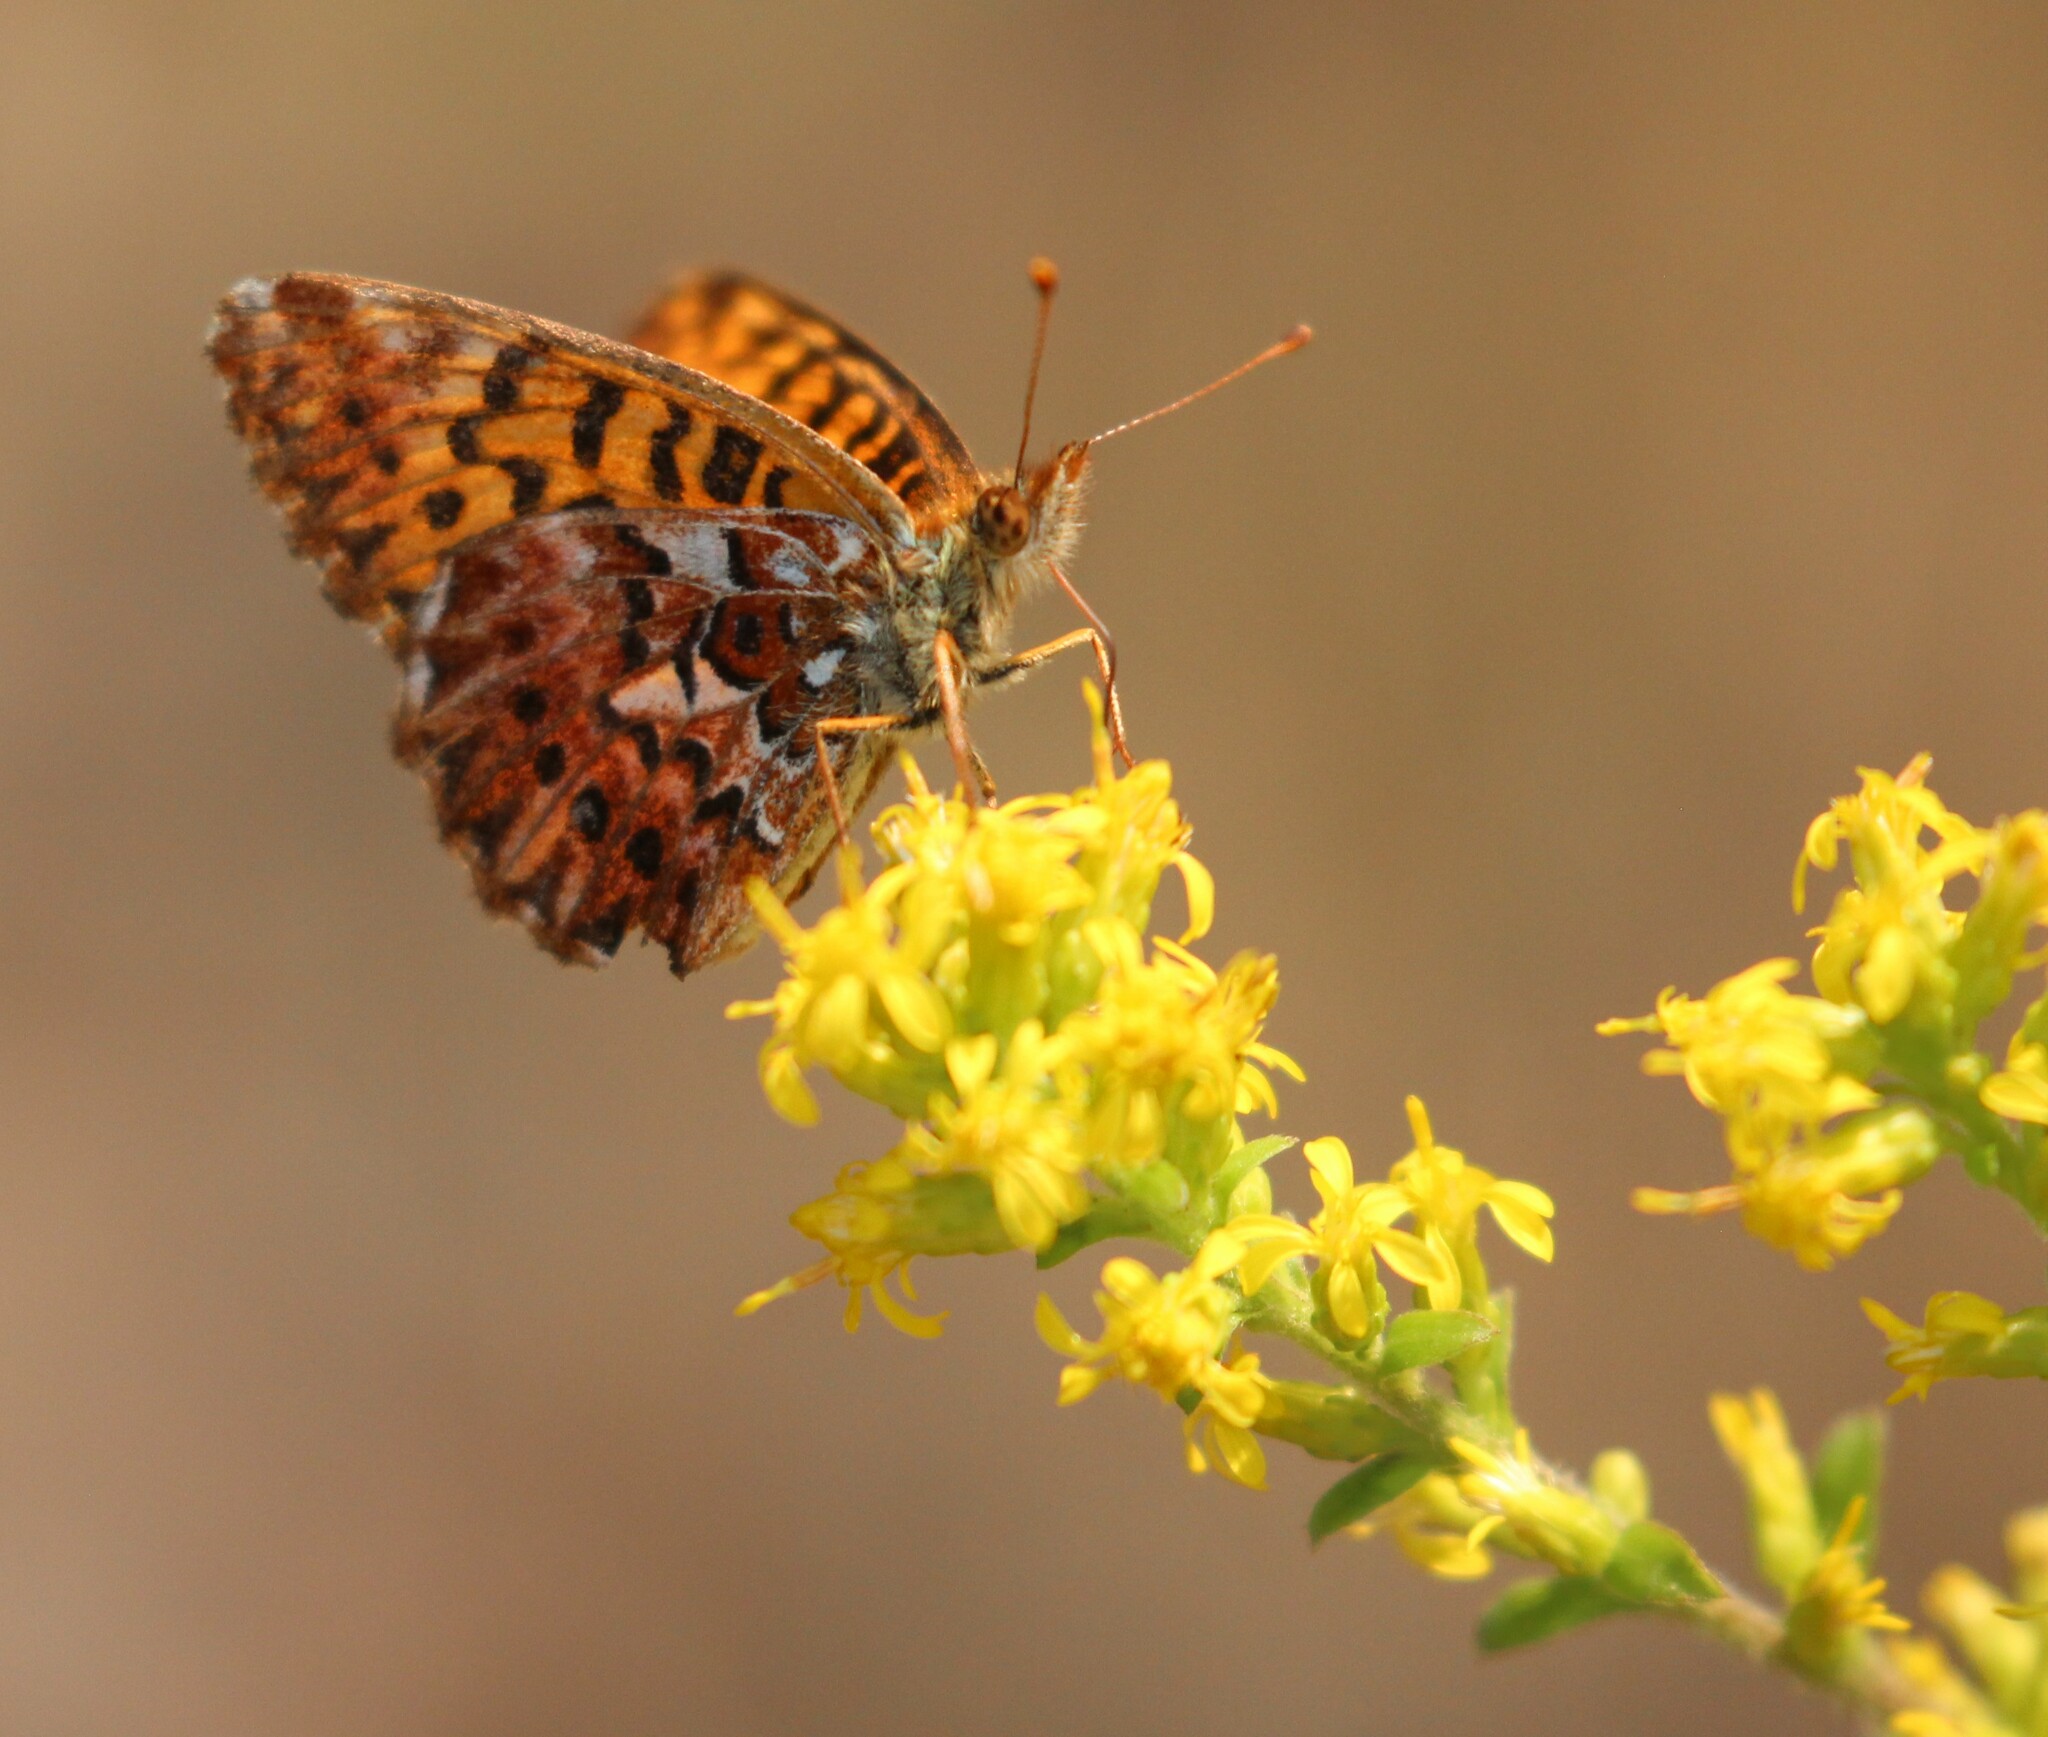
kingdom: Animalia
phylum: Arthropoda
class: Insecta
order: Lepidoptera
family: Nymphalidae
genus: Boloria
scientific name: Boloria chariclea
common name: Arctic fritillary
